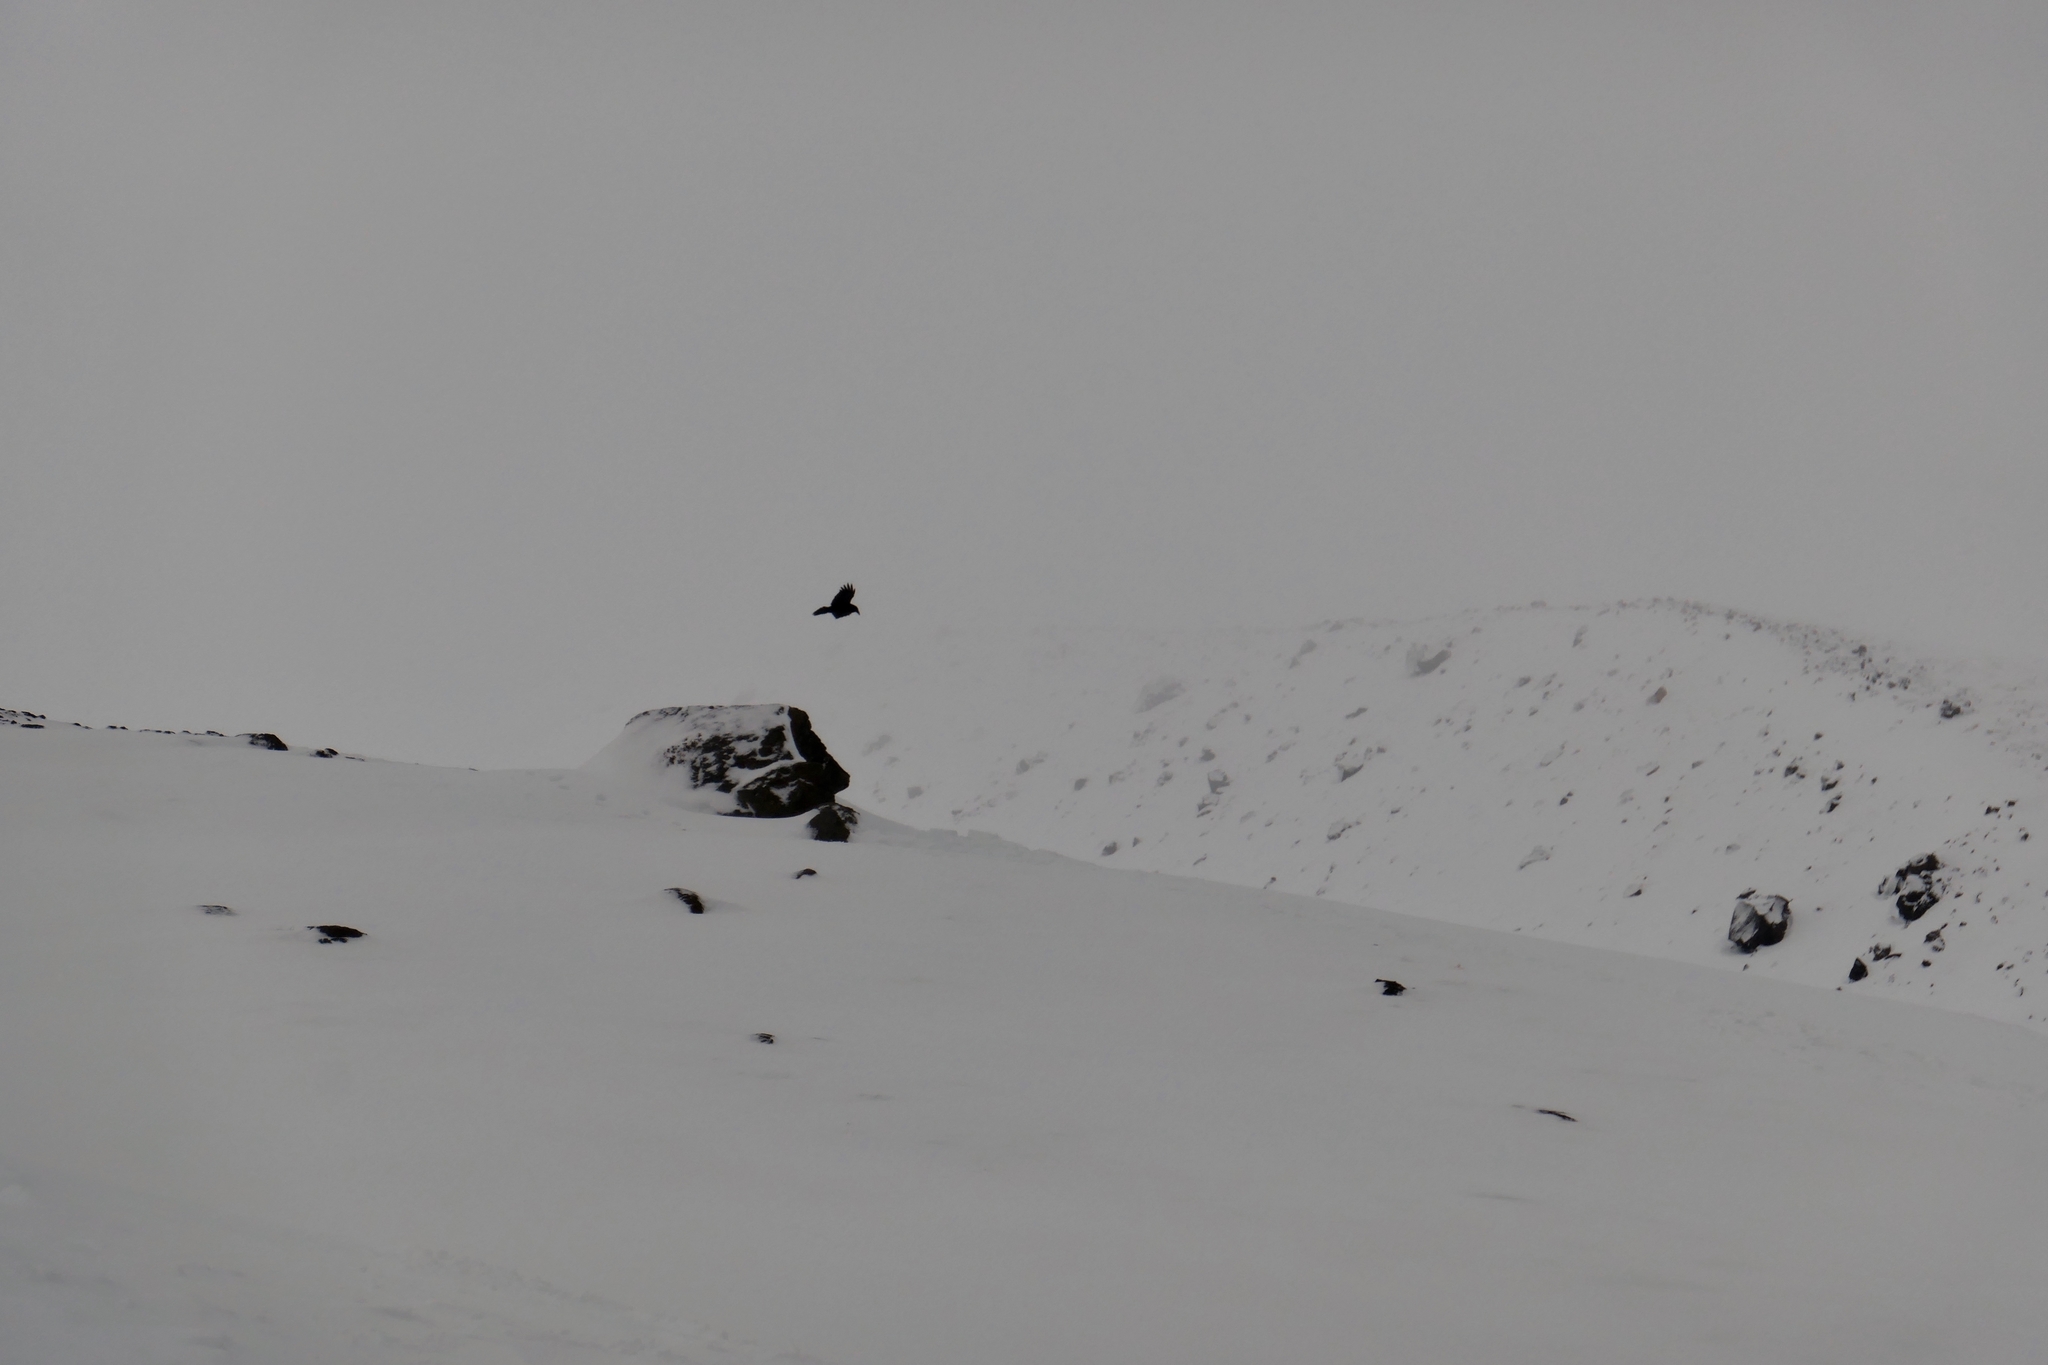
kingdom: Animalia
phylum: Chordata
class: Aves
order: Passeriformes
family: Corvidae
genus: Corvus
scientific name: Corvus brachyrhynchos
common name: American crow
